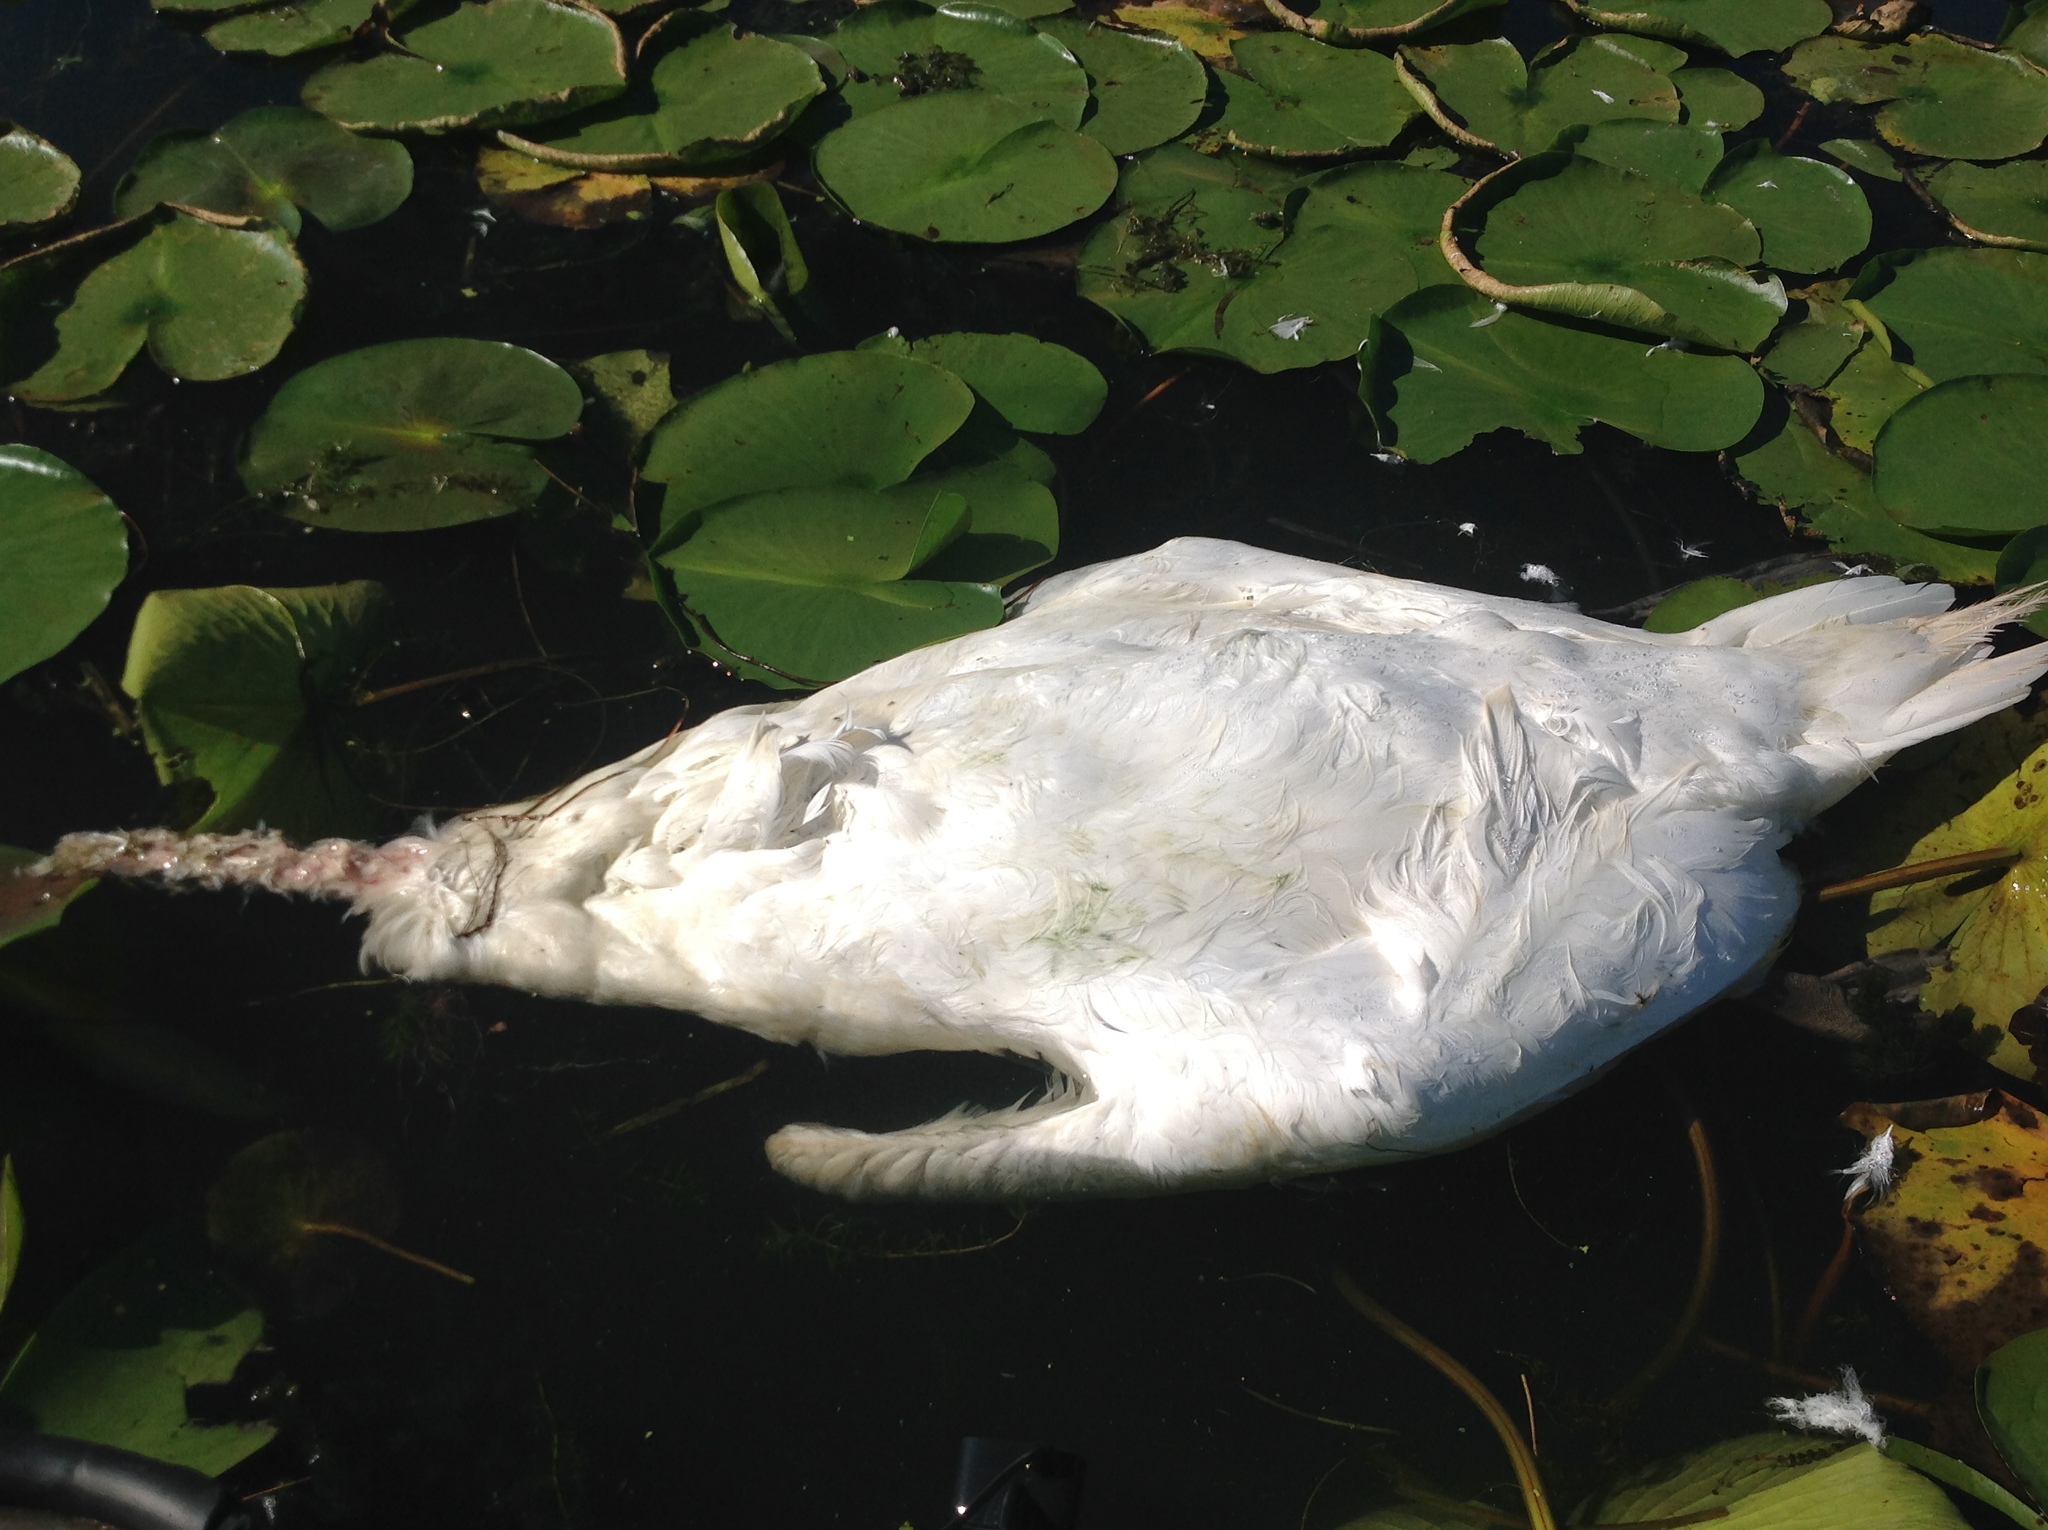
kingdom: Animalia
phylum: Chordata
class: Aves
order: Anseriformes
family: Anatidae
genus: Cygnus
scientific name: Cygnus
